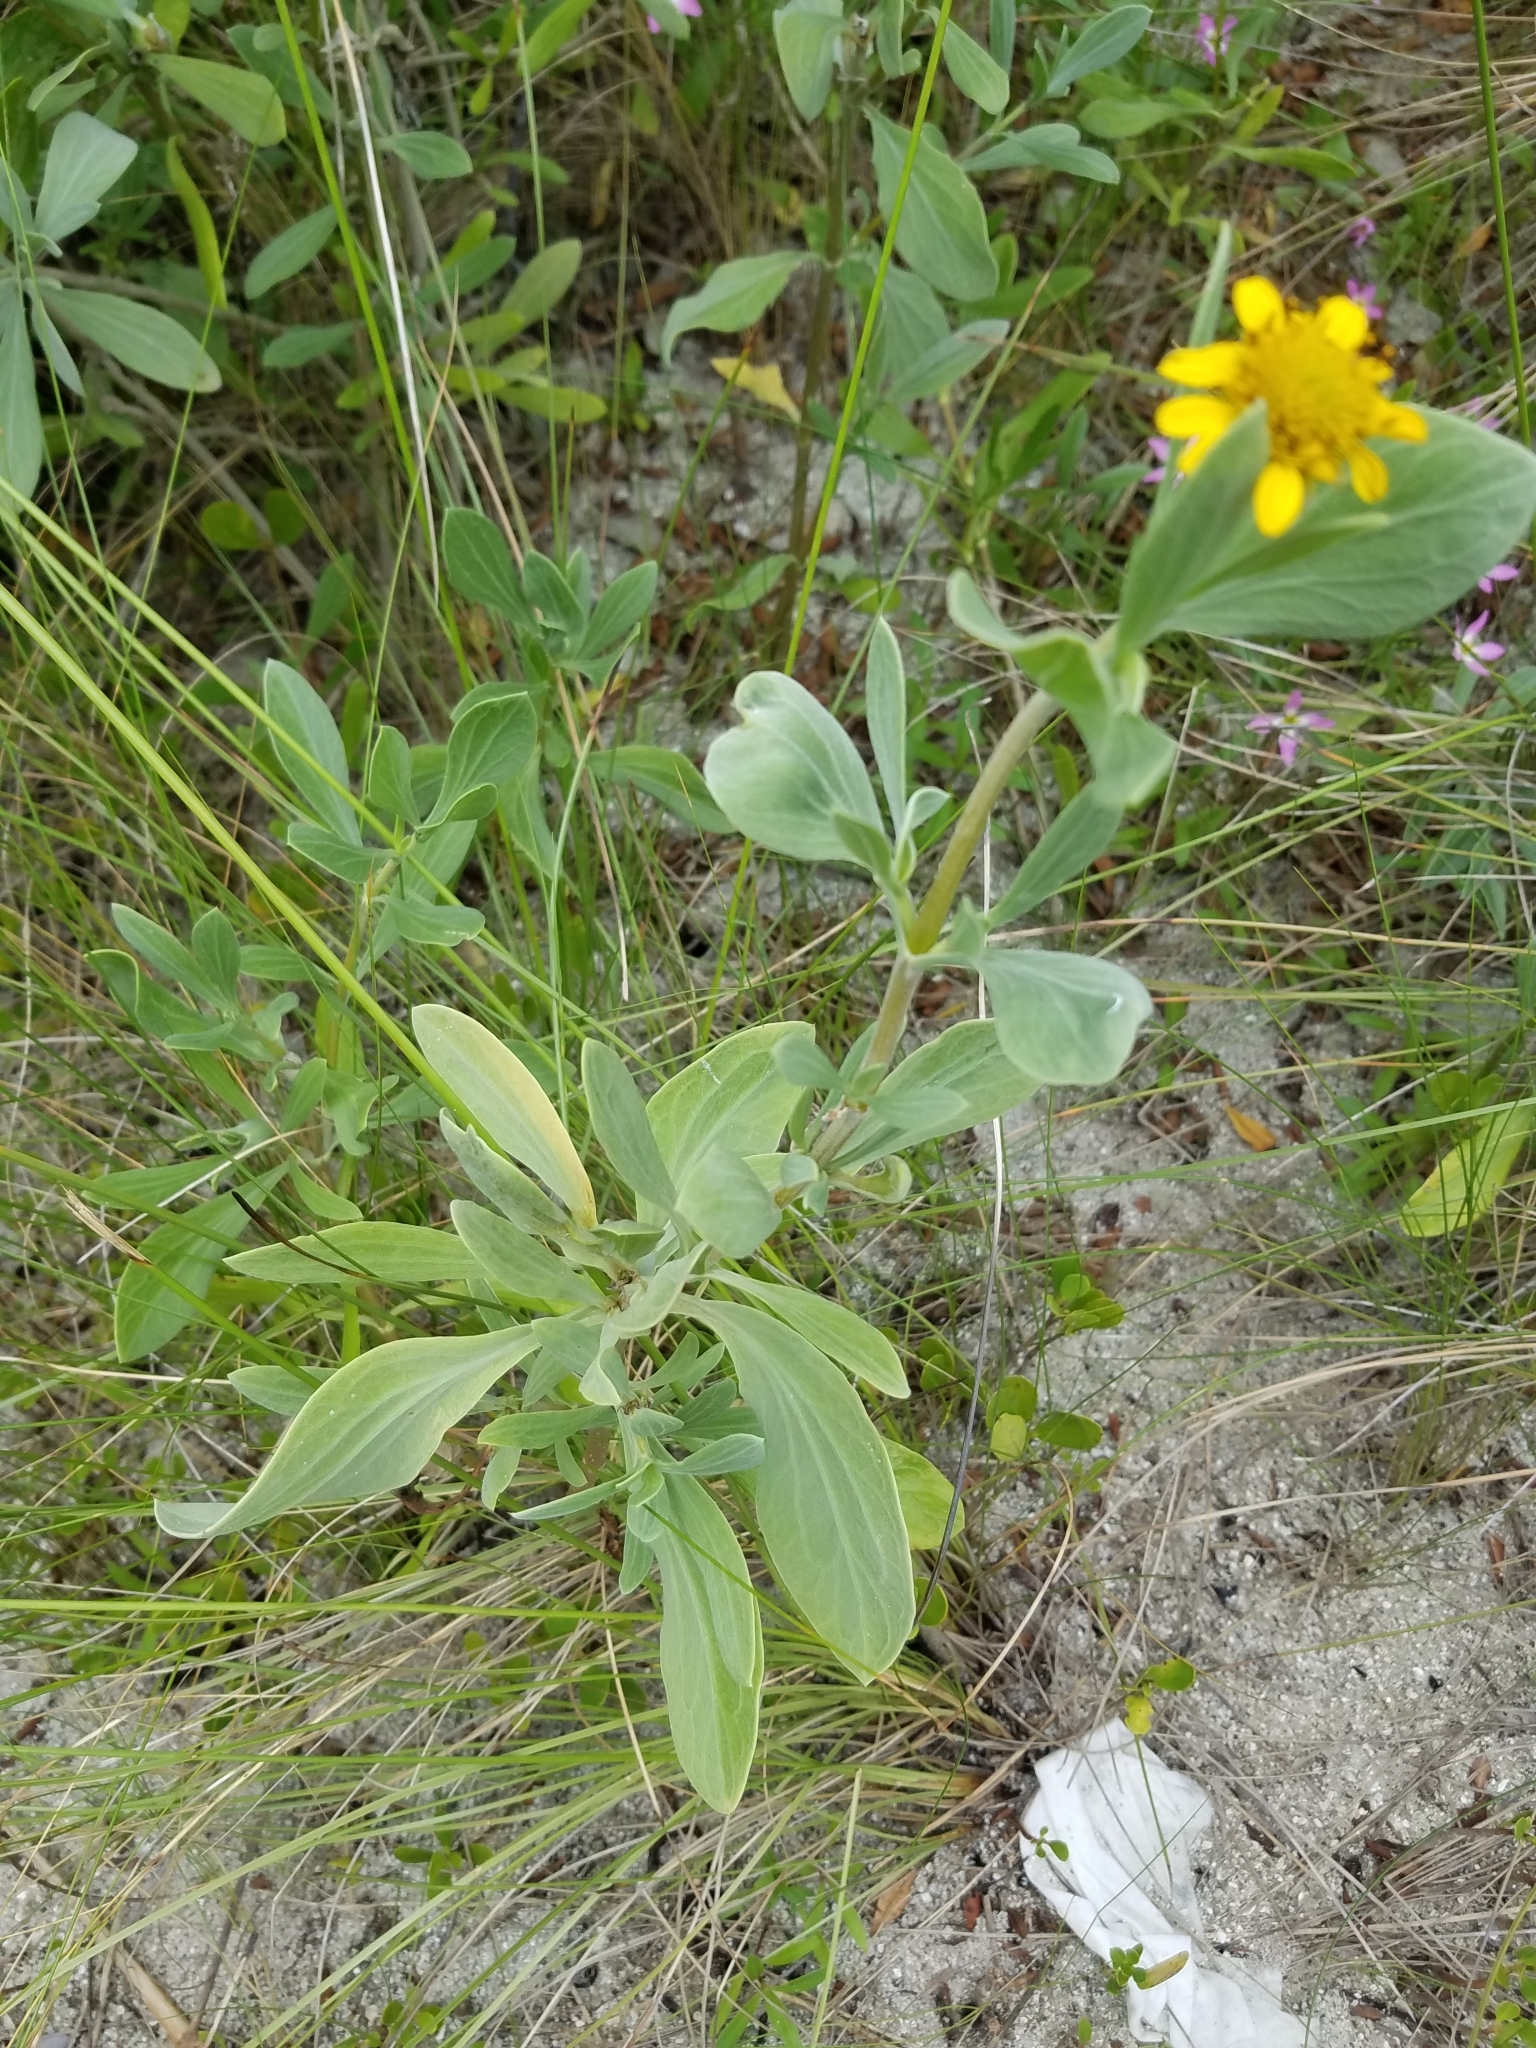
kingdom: Plantae
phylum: Tracheophyta
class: Magnoliopsida
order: Asterales
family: Asteraceae
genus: Borrichia
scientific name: Borrichia frutescens
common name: Sea oxeye
